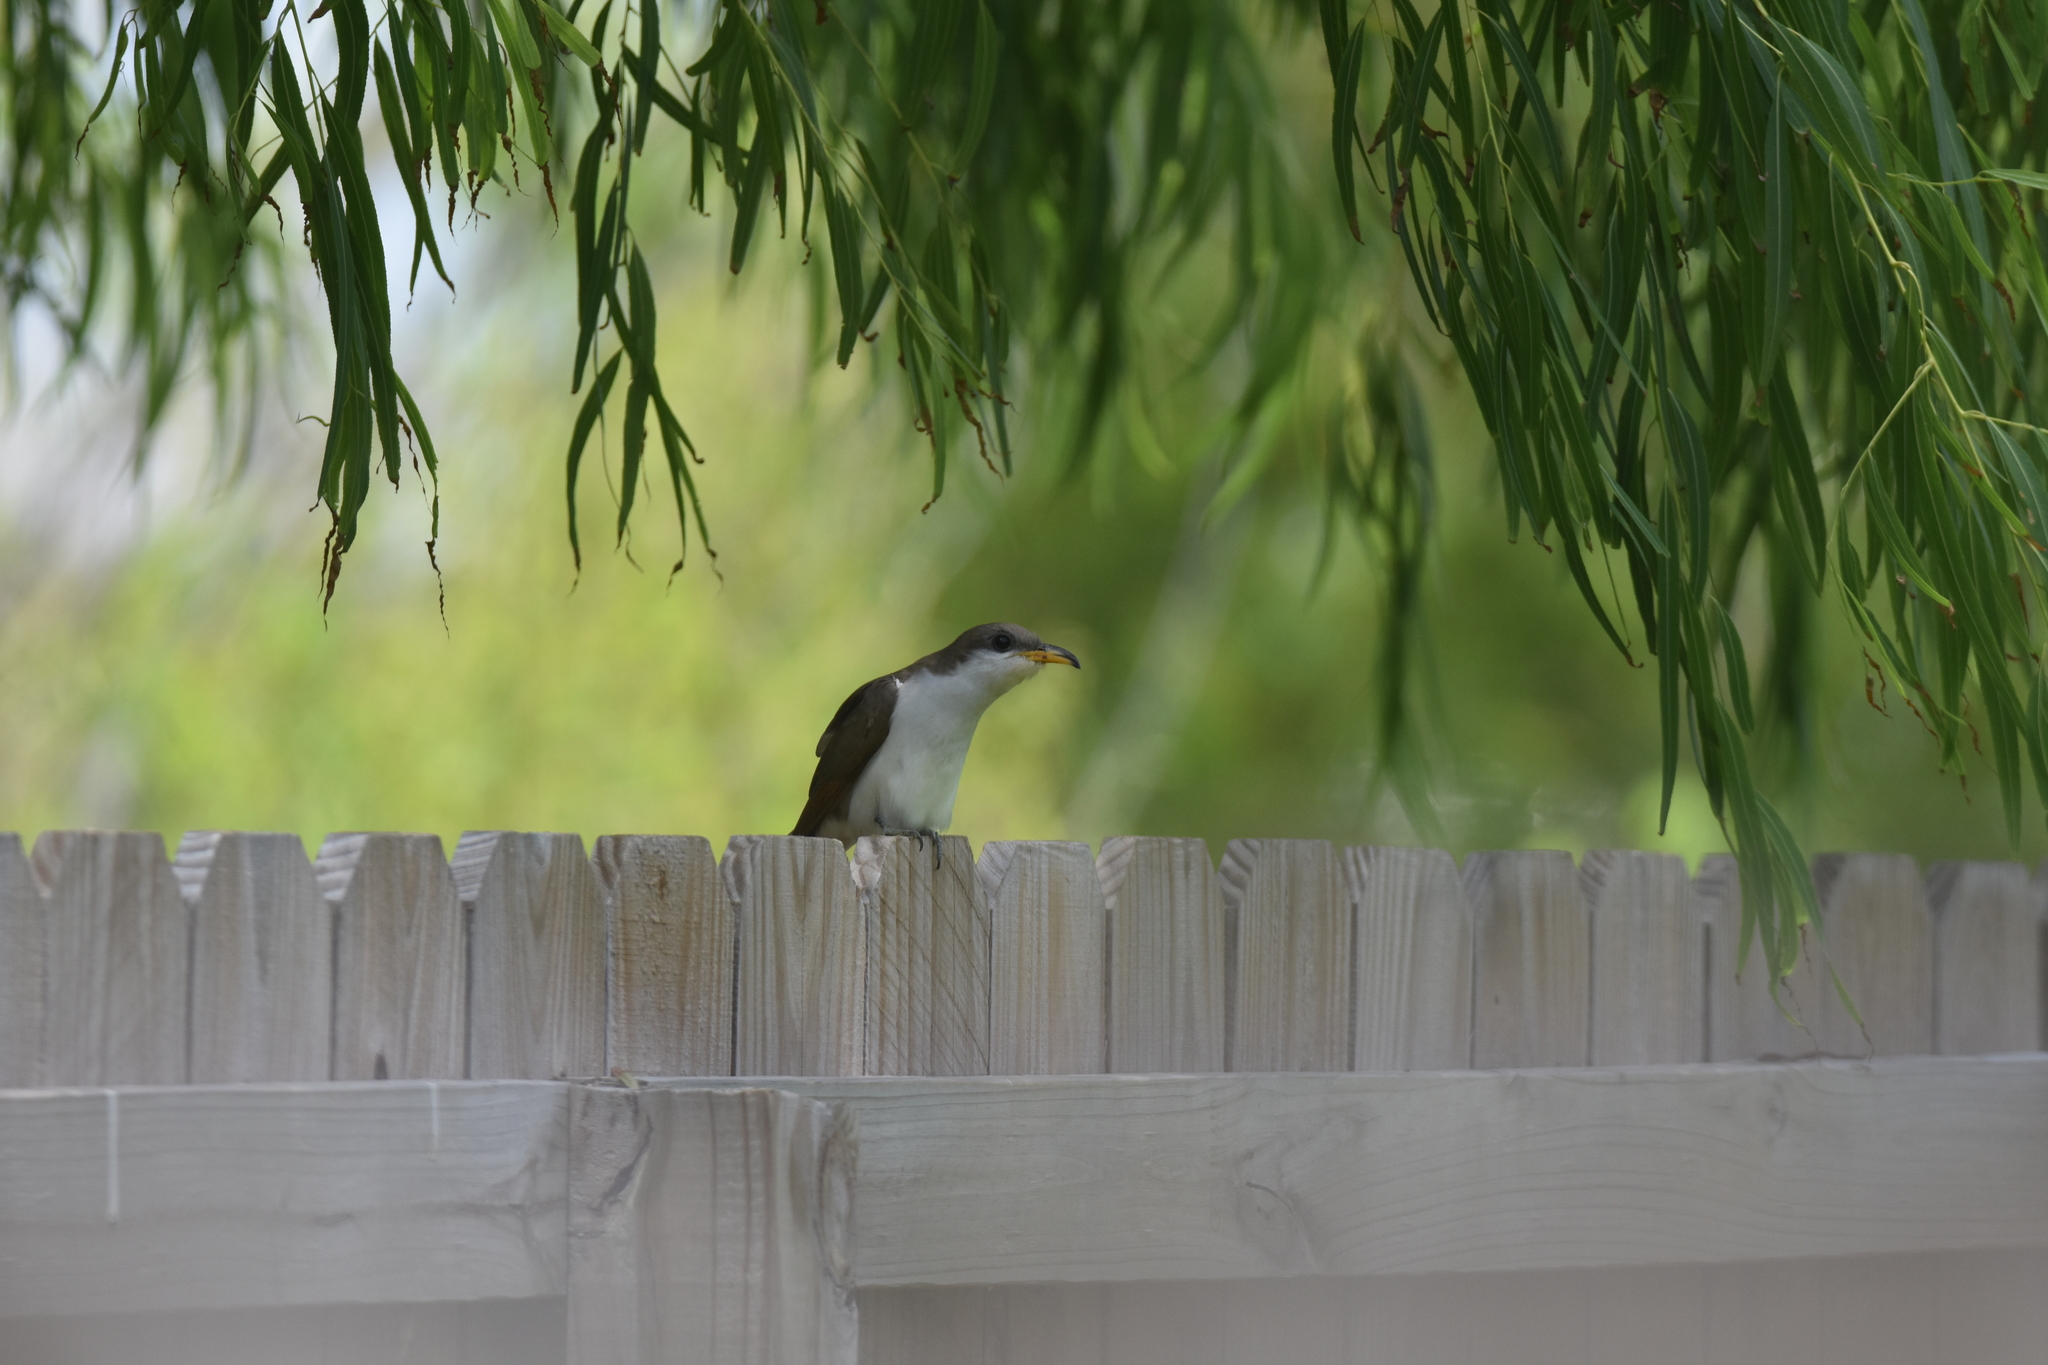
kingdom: Animalia
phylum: Chordata
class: Aves
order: Cuculiformes
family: Cuculidae
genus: Coccyzus
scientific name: Coccyzus americanus
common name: Yellow-billed cuckoo
